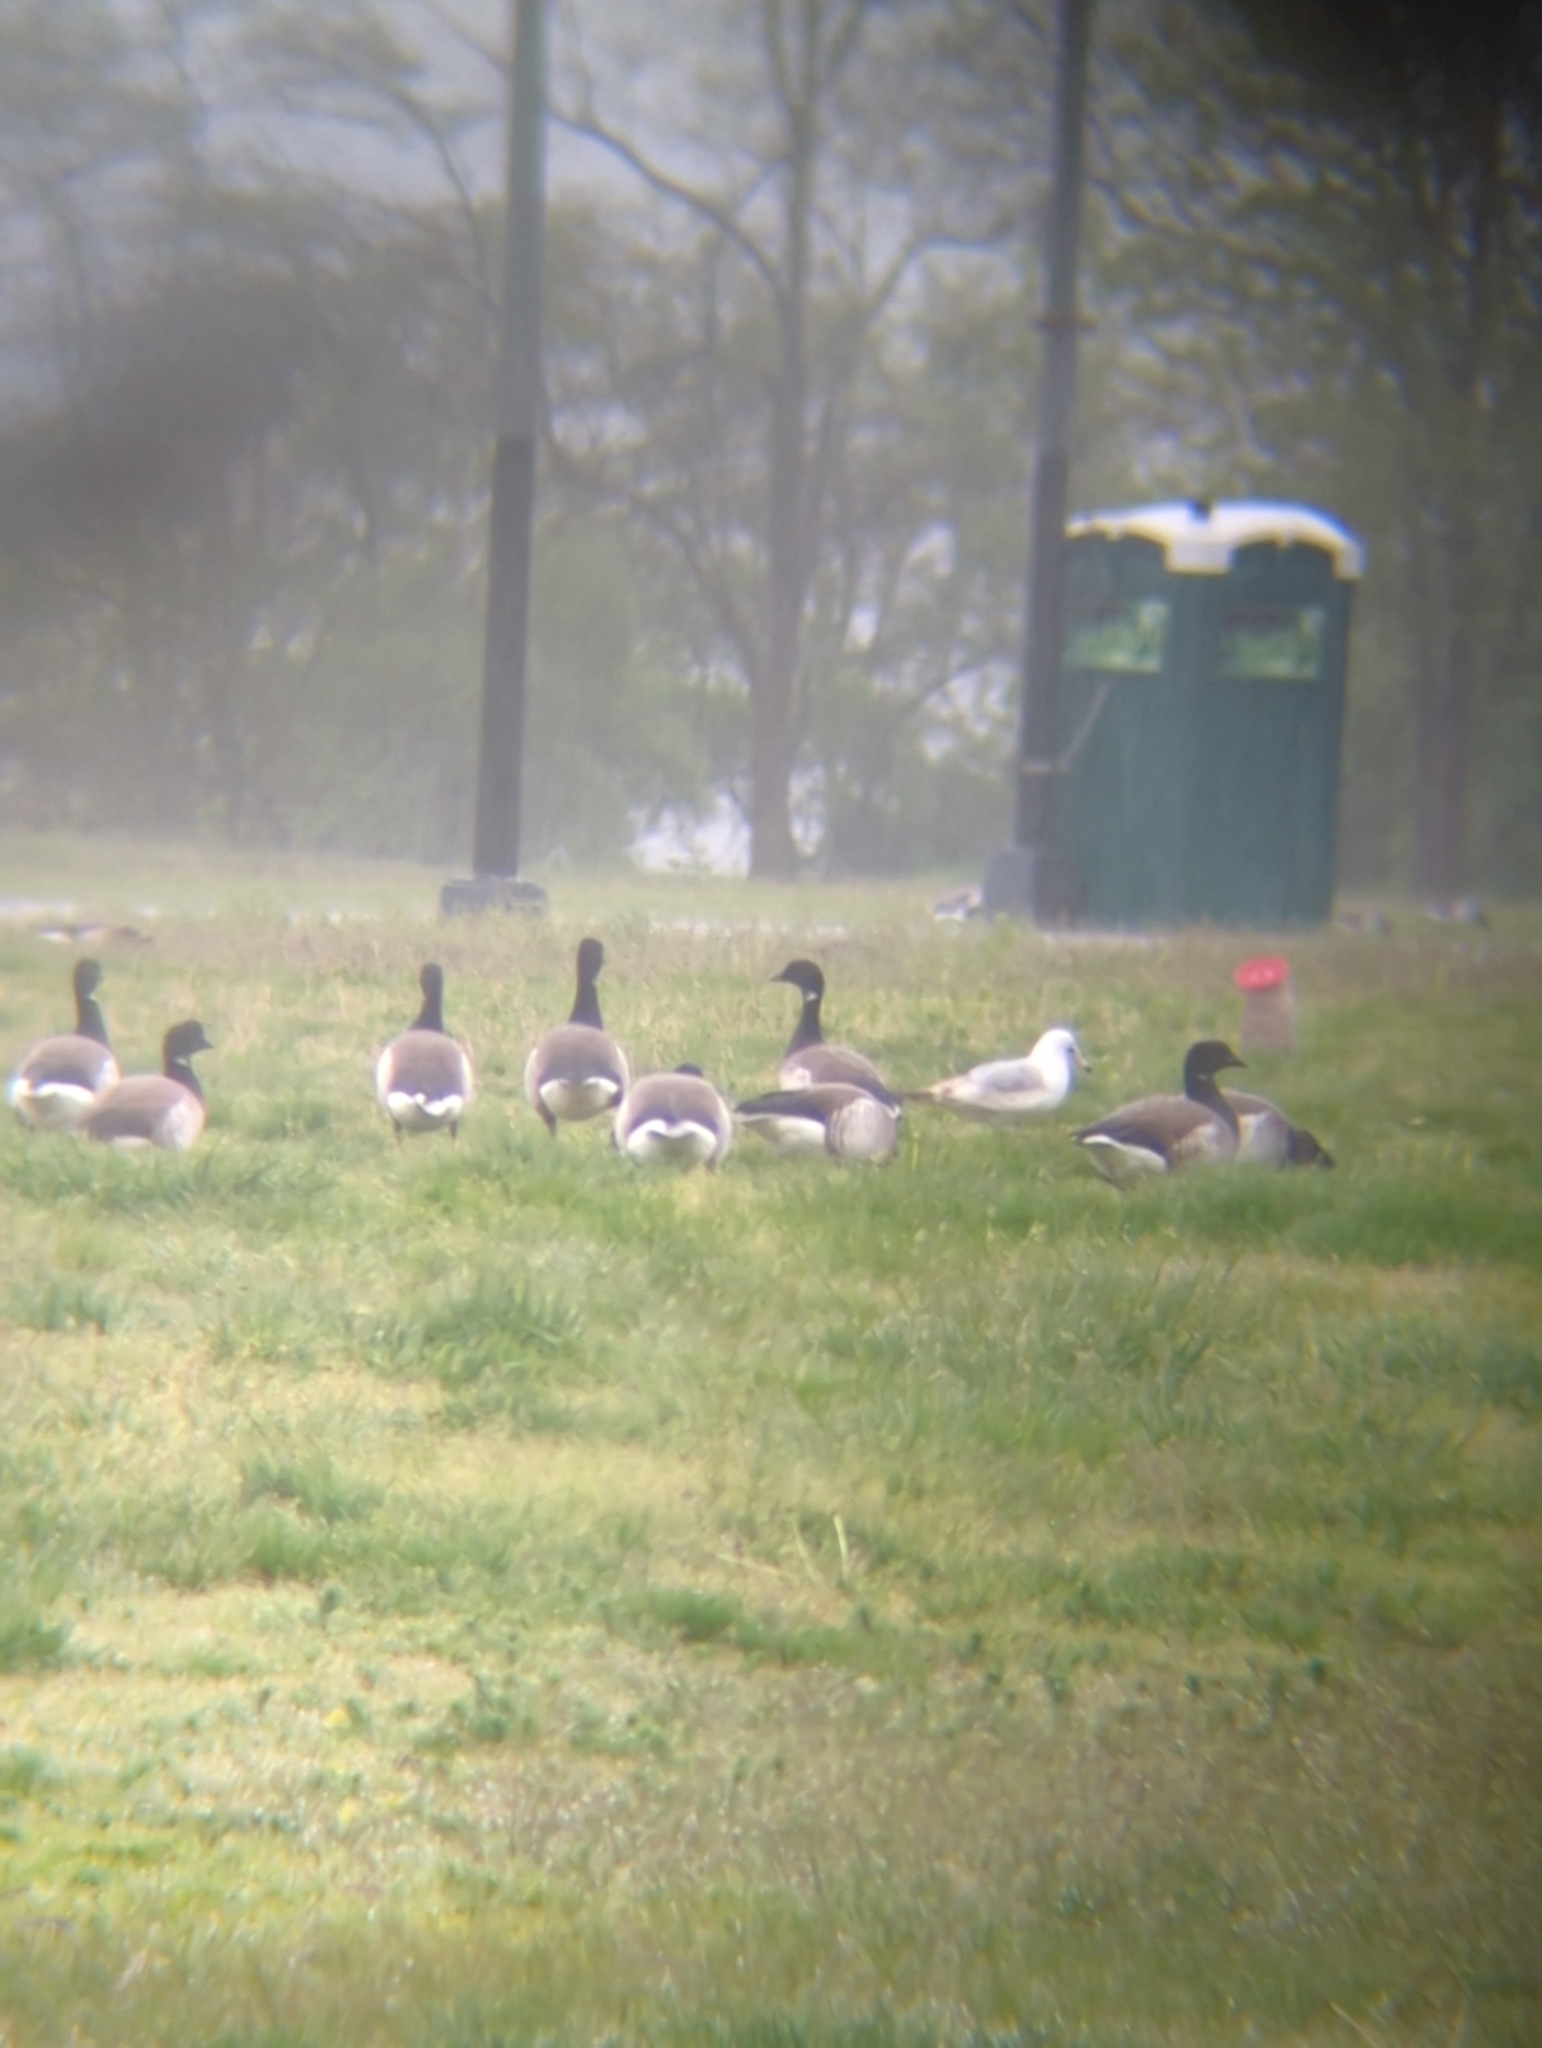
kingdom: Animalia
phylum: Chordata
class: Aves
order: Anseriformes
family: Anatidae
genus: Branta
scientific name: Branta bernicla
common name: Brant goose
